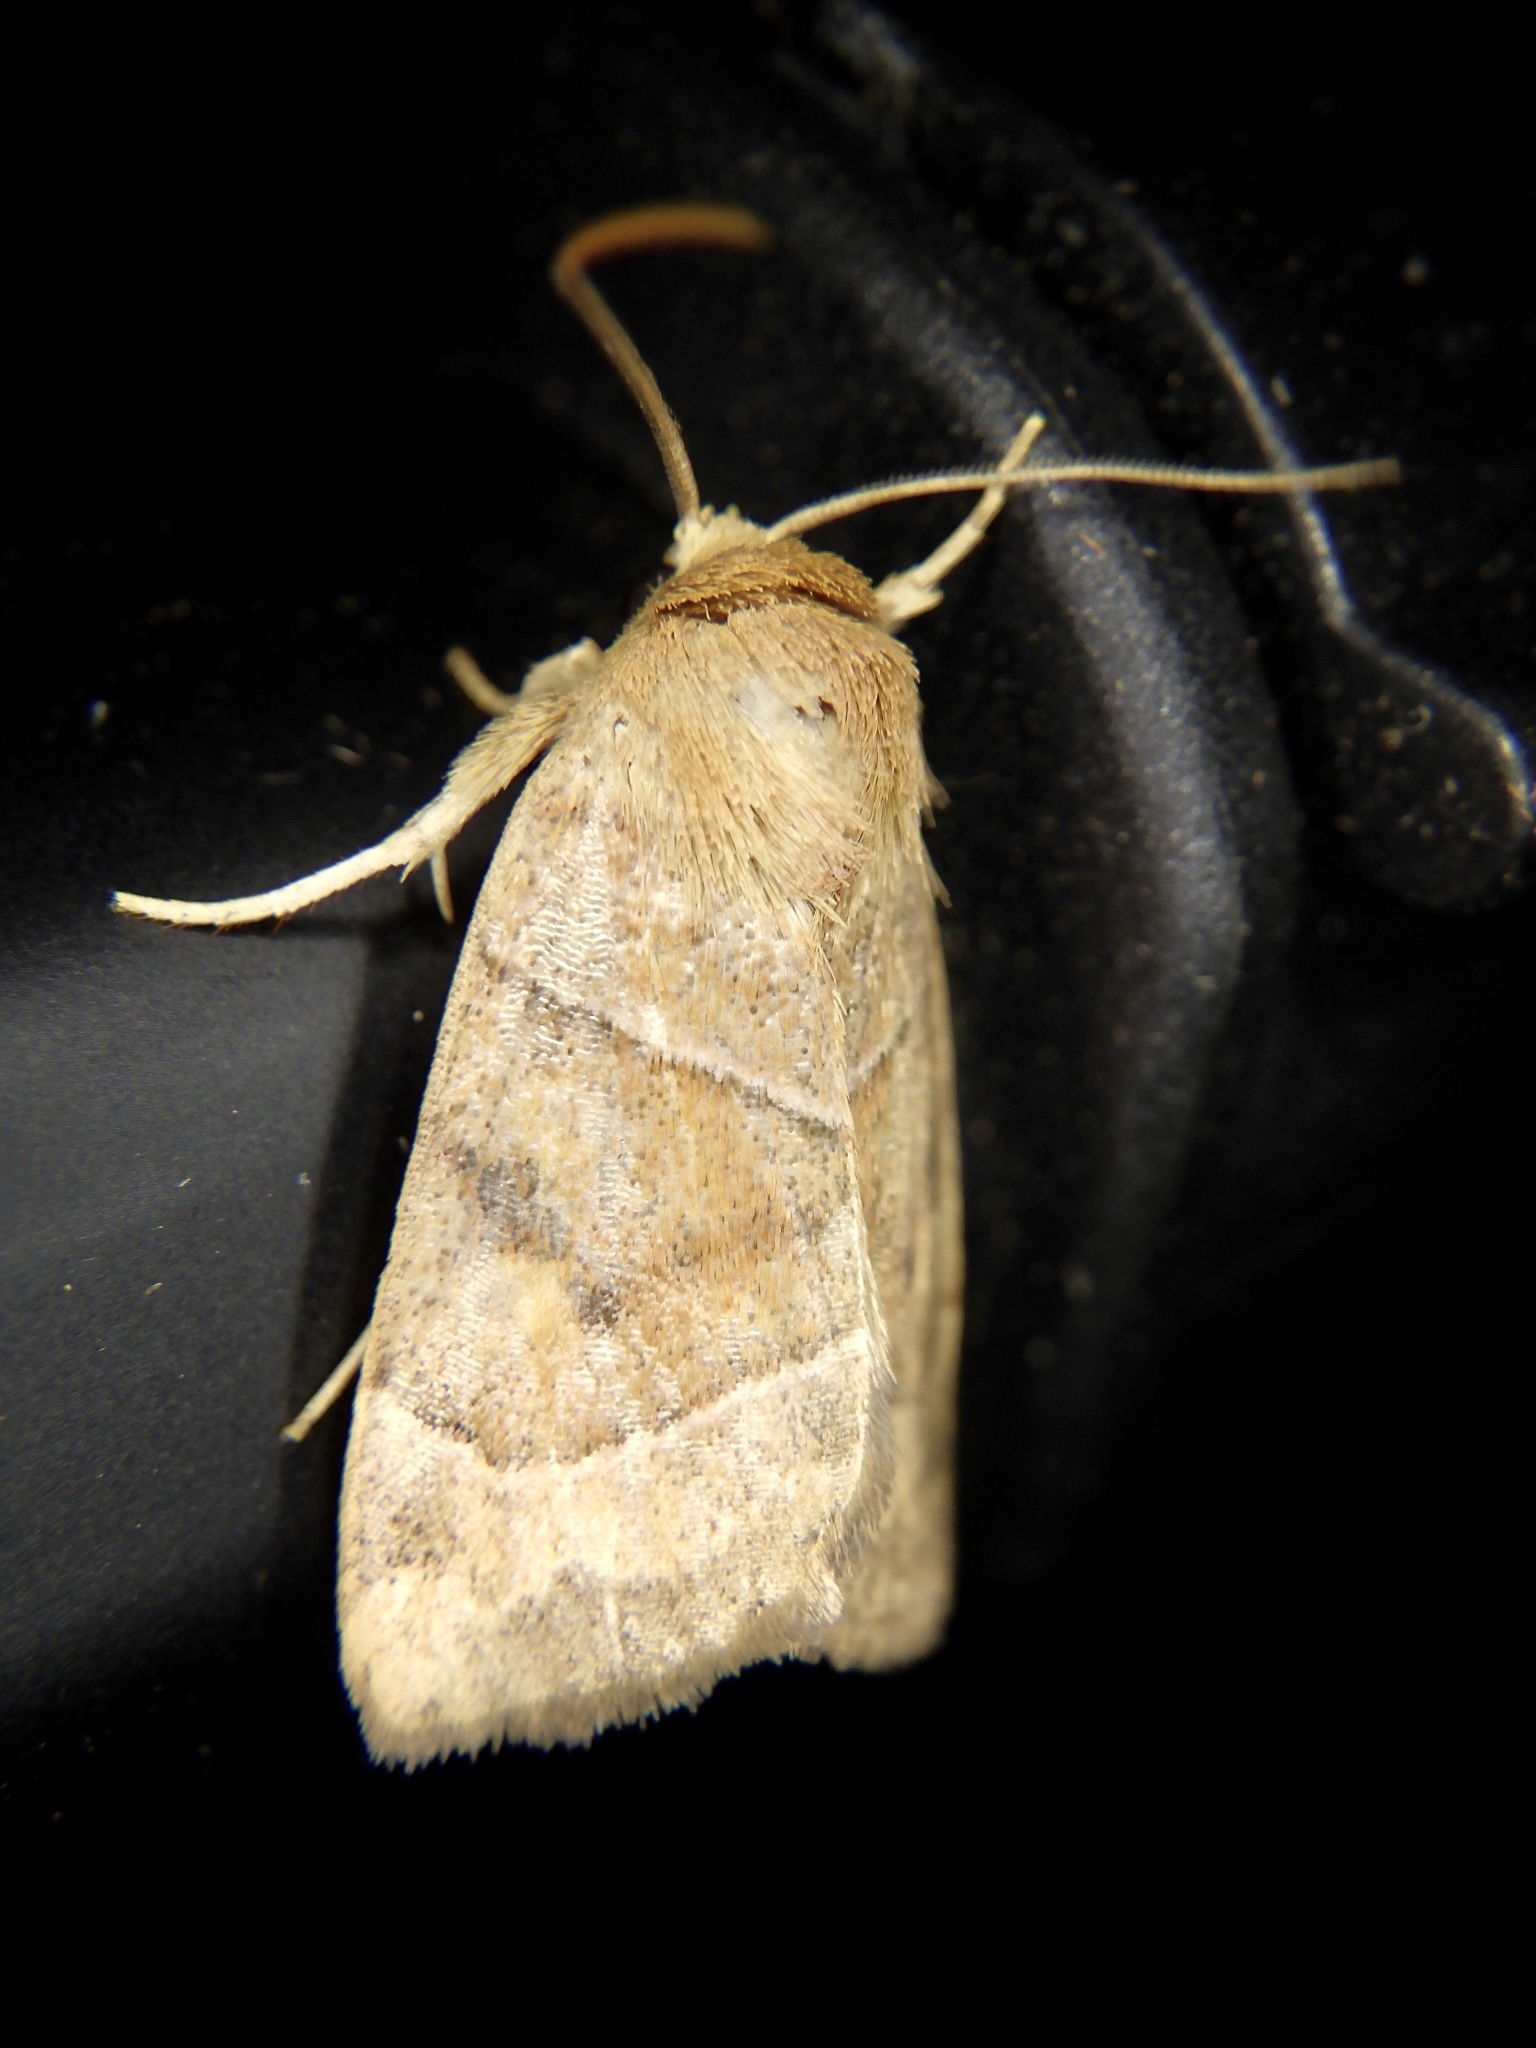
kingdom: Animalia
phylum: Arthropoda
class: Insecta
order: Lepidoptera
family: Noctuidae
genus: Cosmia
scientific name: Cosmia trapezina
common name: Dun-bar
